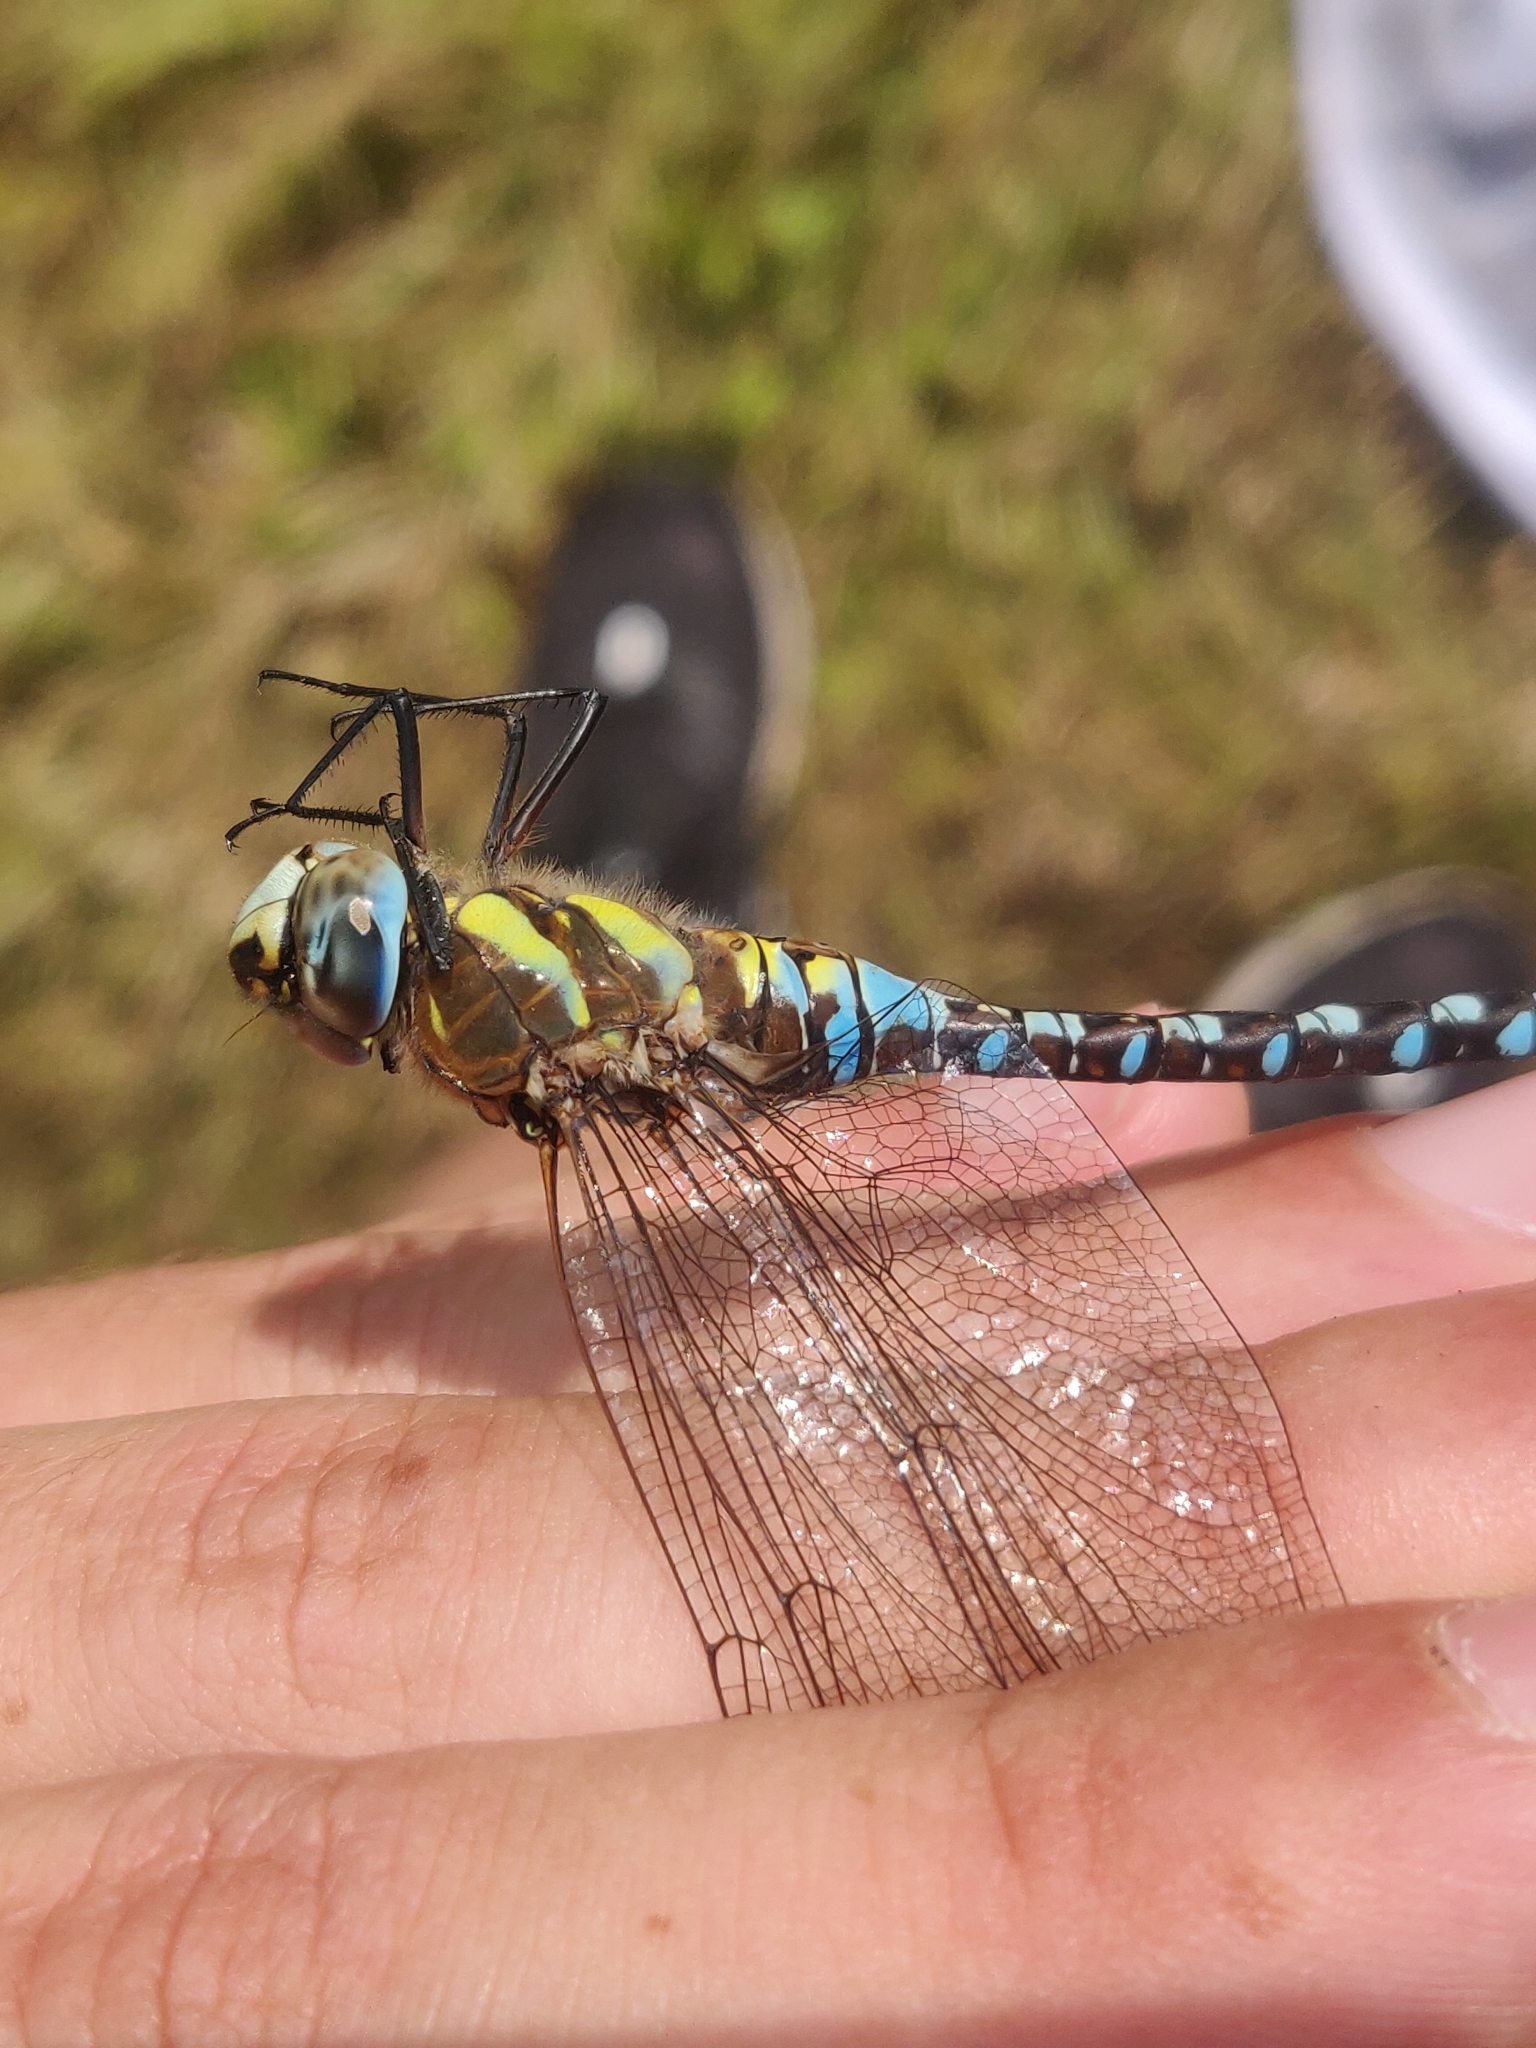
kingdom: Animalia
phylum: Arthropoda
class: Insecta
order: Odonata
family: Aeshnidae
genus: Aeshna
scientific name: Aeshna mixta
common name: Migrant hawker
